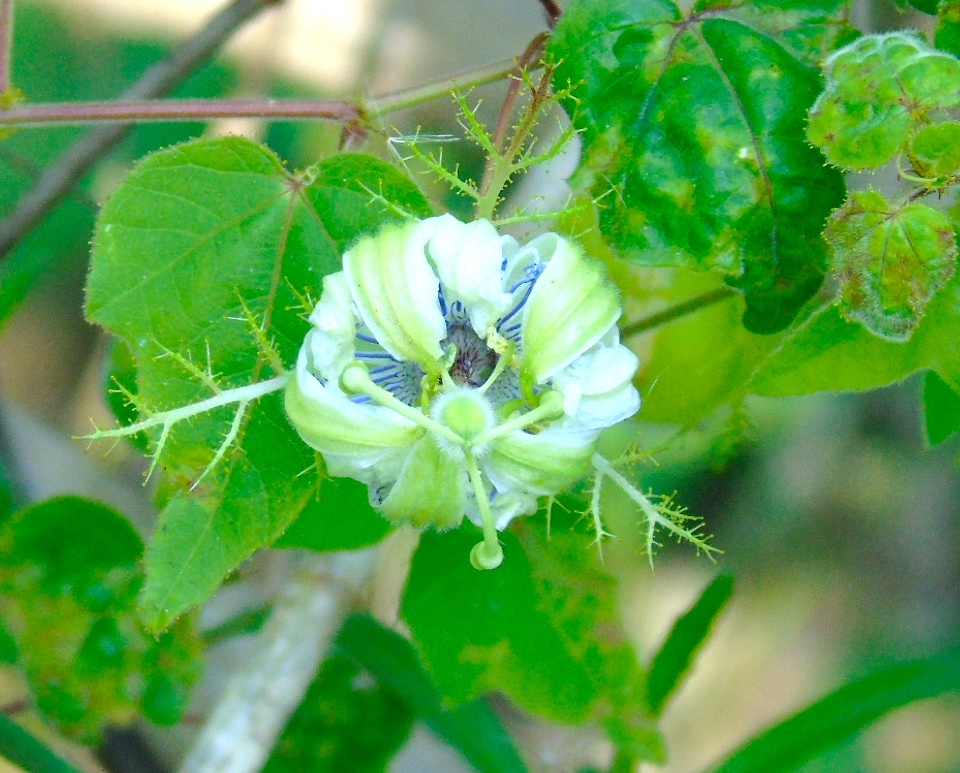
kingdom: Plantae
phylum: Tracheophyta
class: Magnoliopsida
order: Malpighiales
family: Passifloraceae
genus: Passiflora
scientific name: Passiflora foetida
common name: Fetid passionflower
